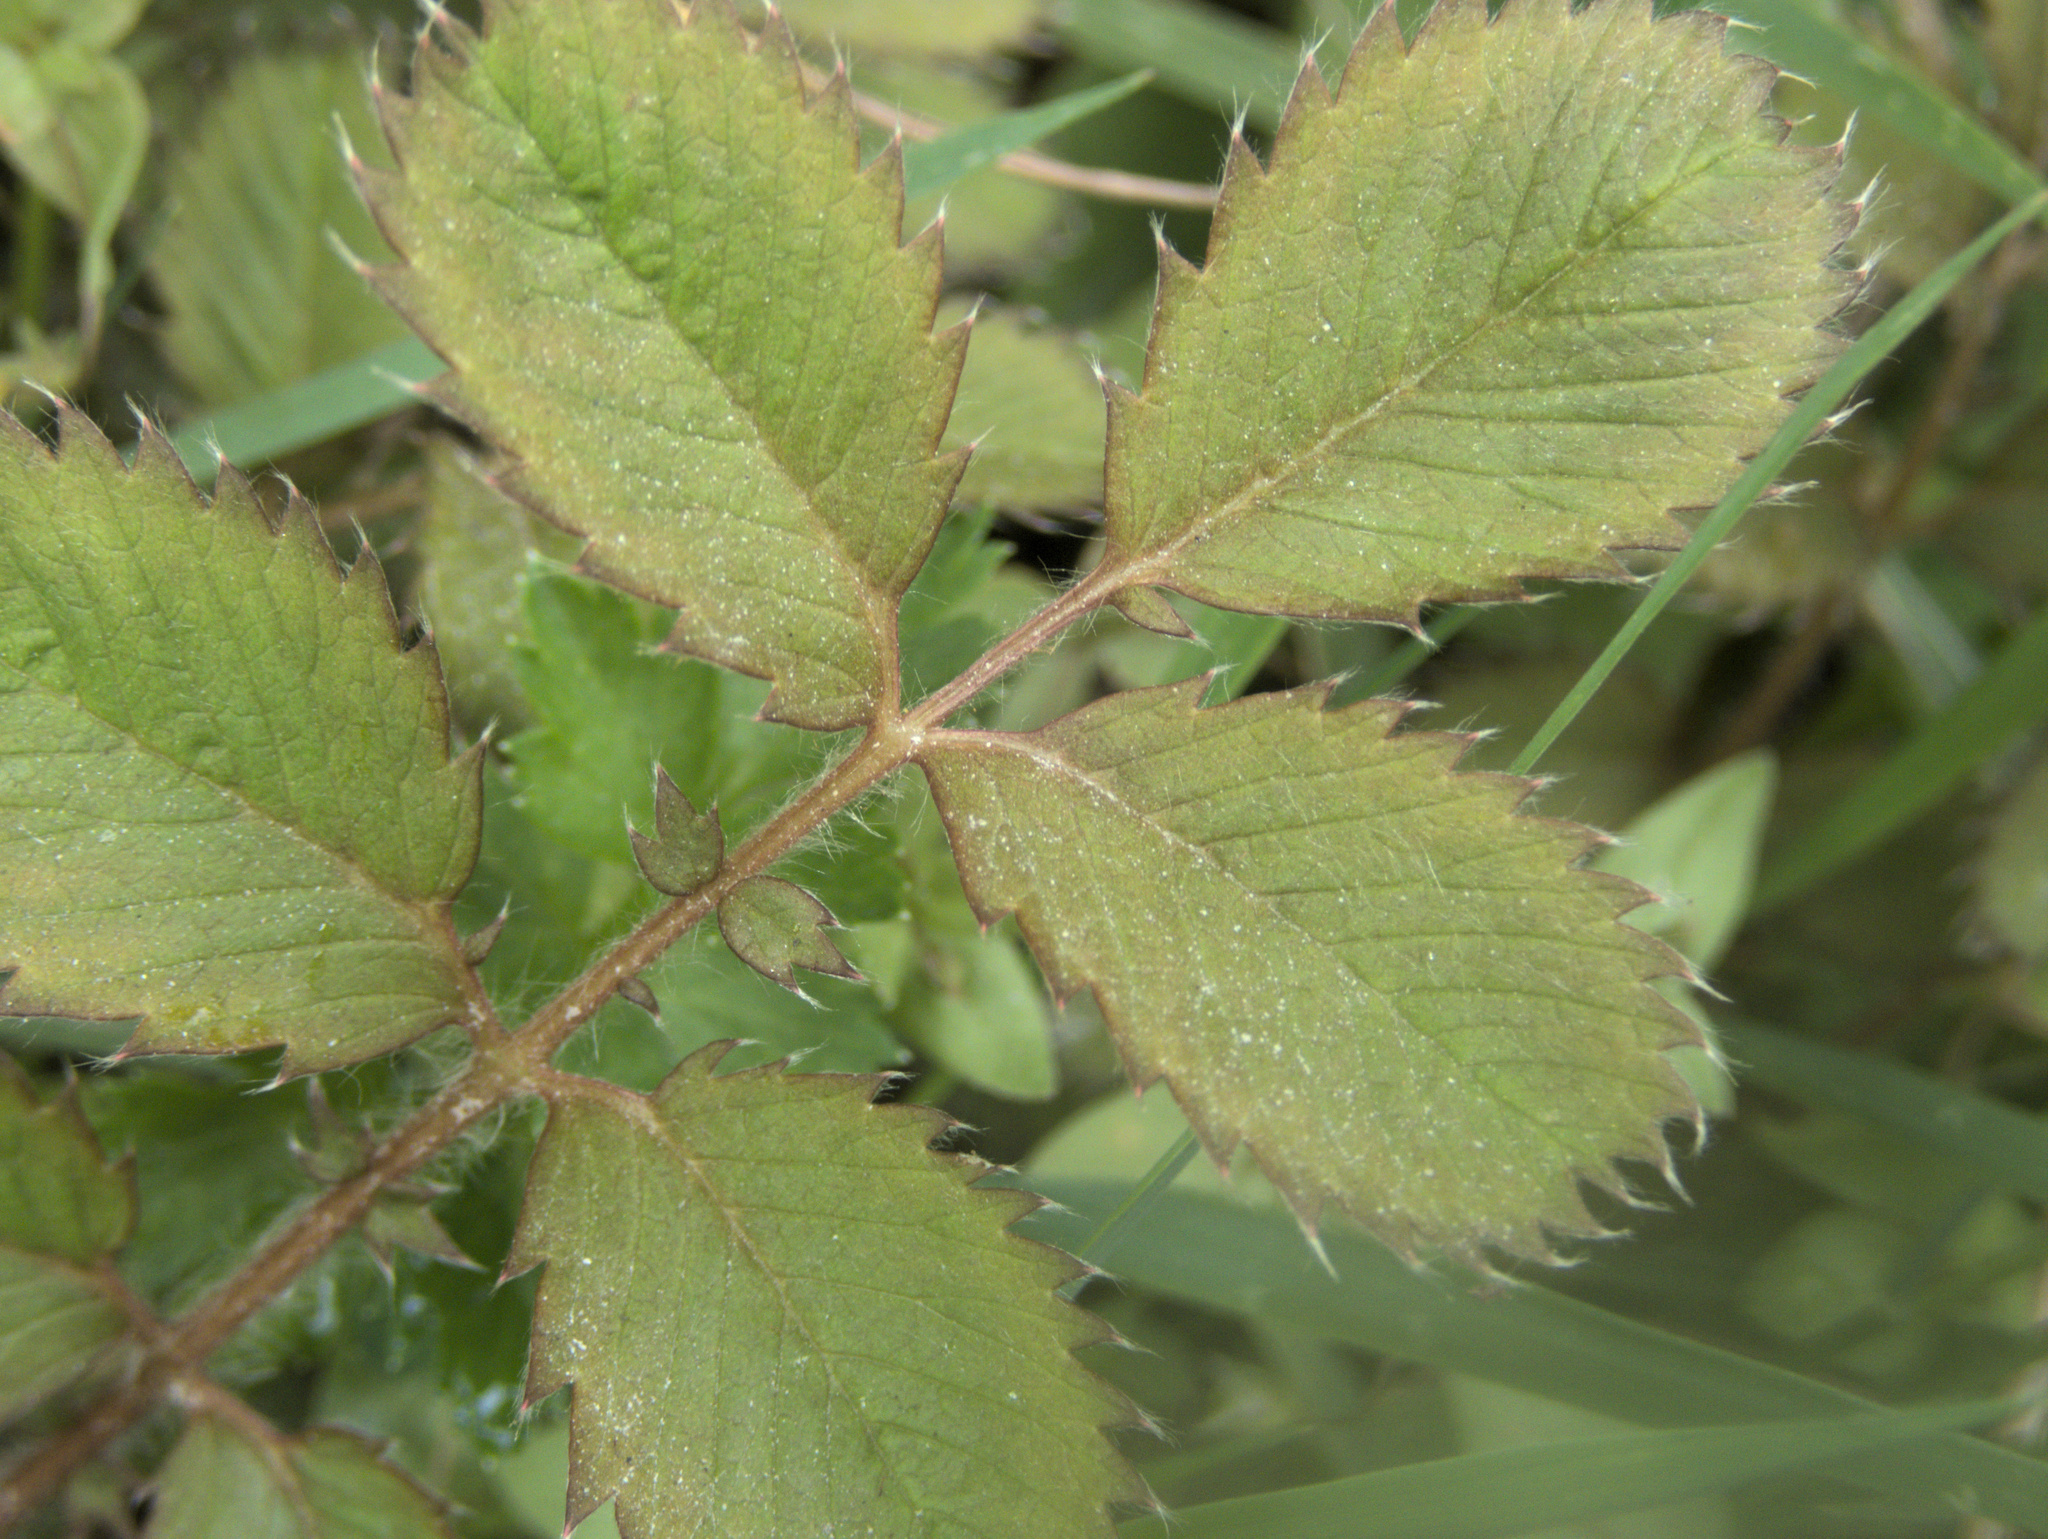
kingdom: Plantae
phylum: Tracheophyta
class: Magnoliopsida
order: Rosales
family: Rosaceae
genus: Argentina
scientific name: Argentina anserina
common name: Common silverweed
